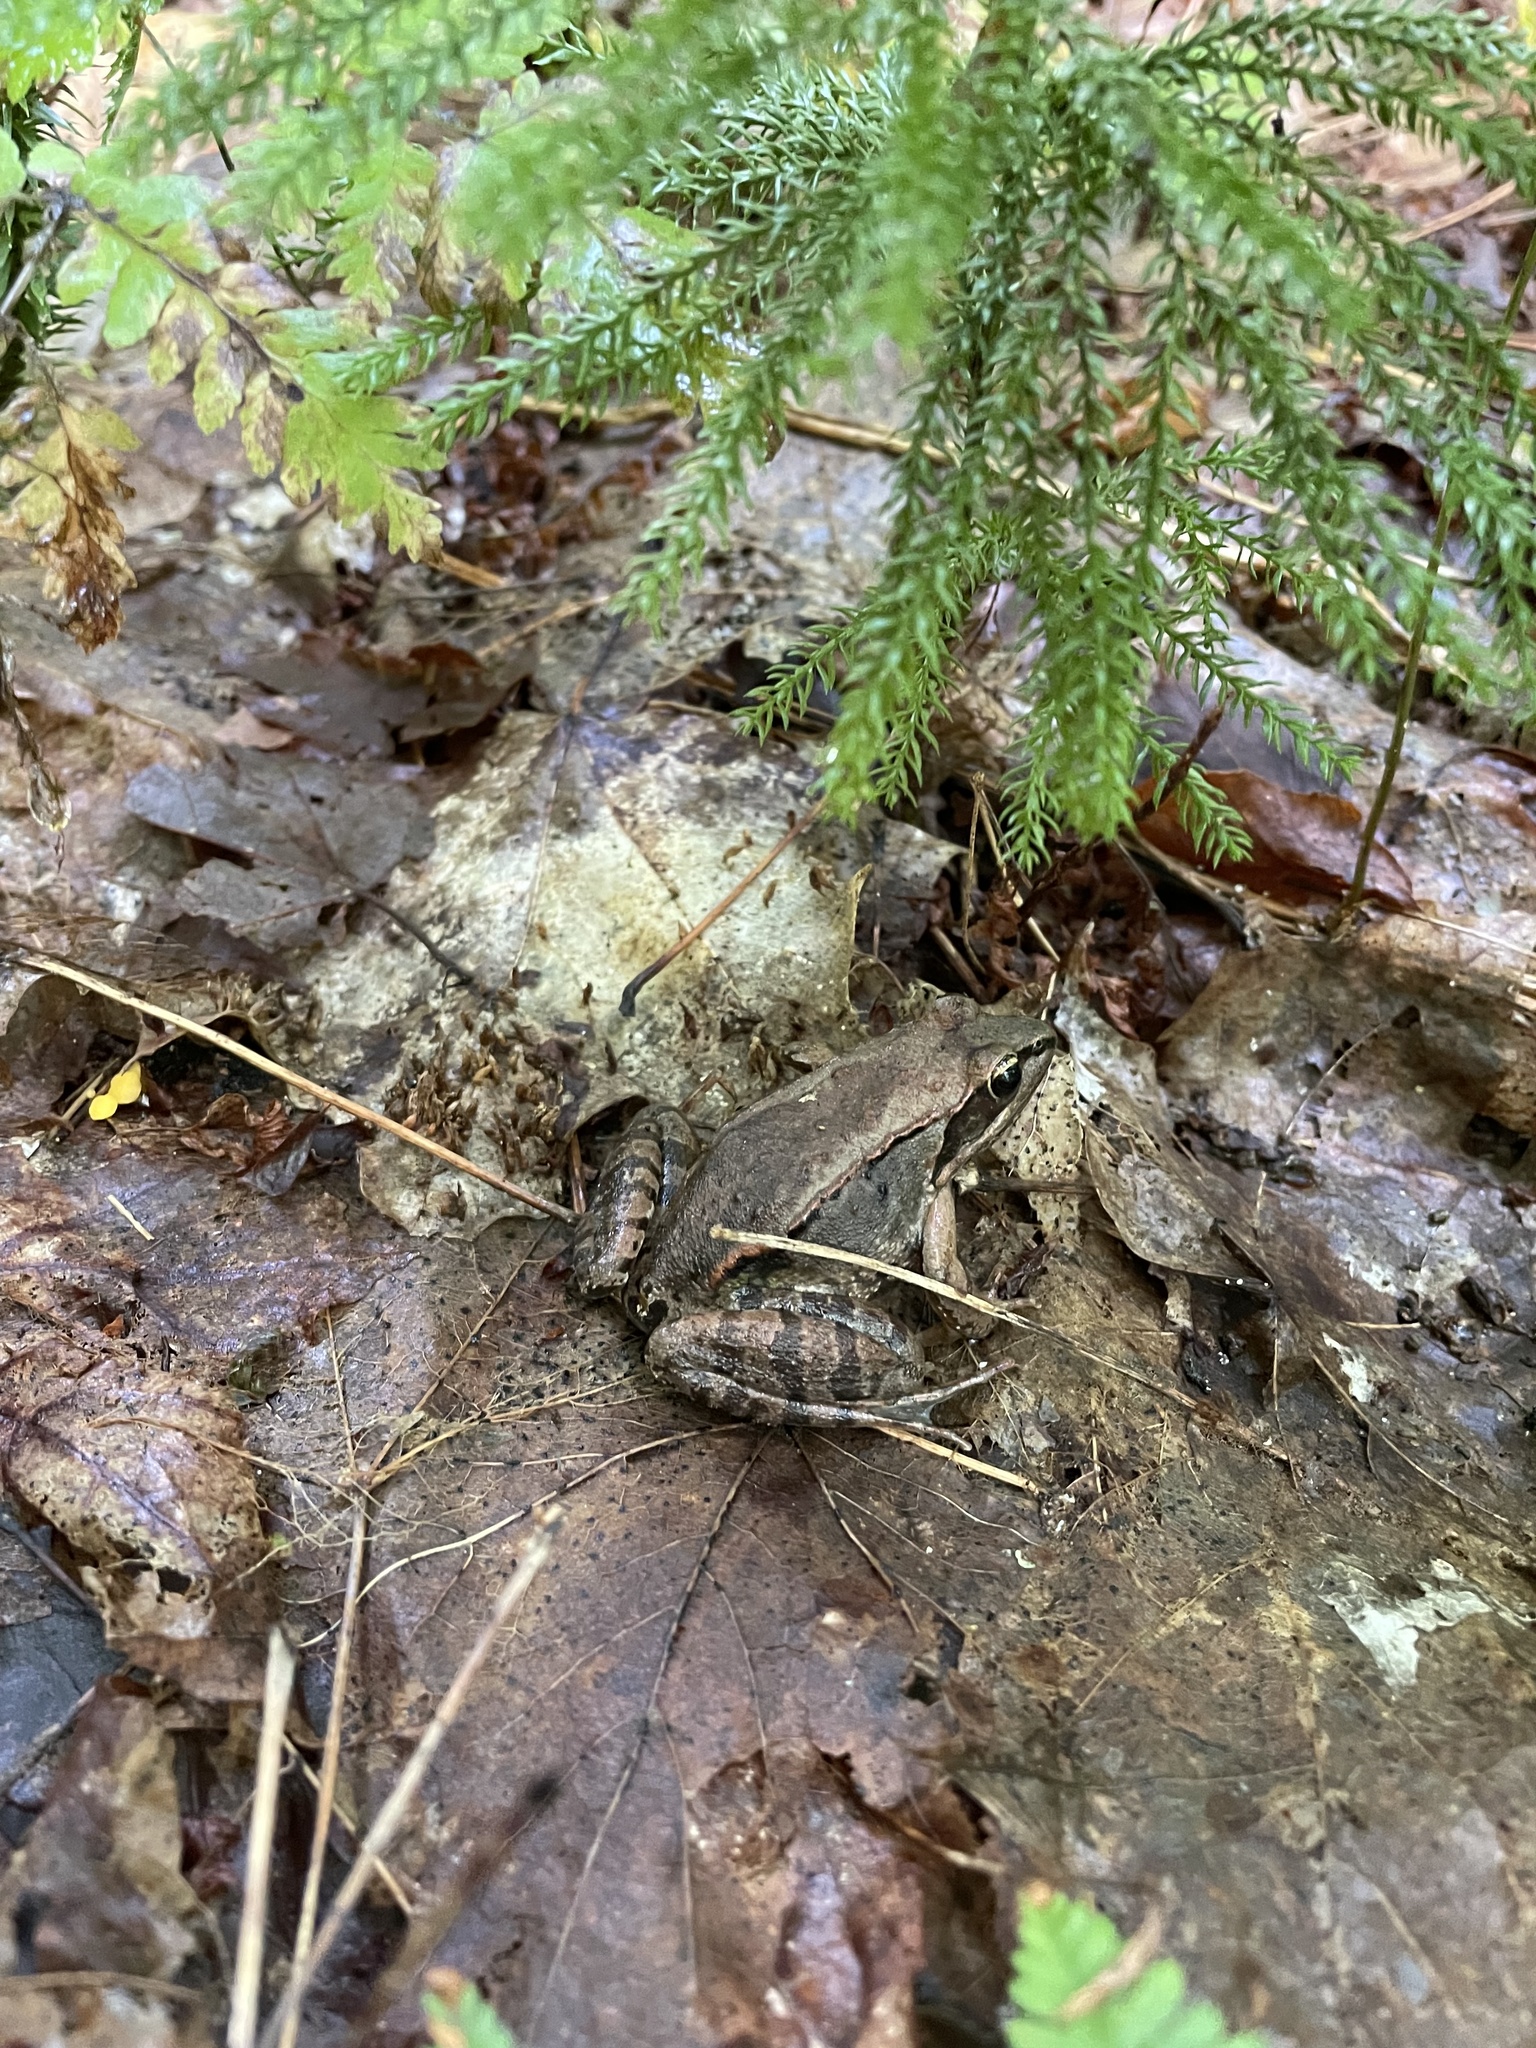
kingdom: Animalia
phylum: Chordata
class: Amphibia
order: Anura
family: Ranidae
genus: Lithobates
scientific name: Lithobates sylvaticus
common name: Wood frog
